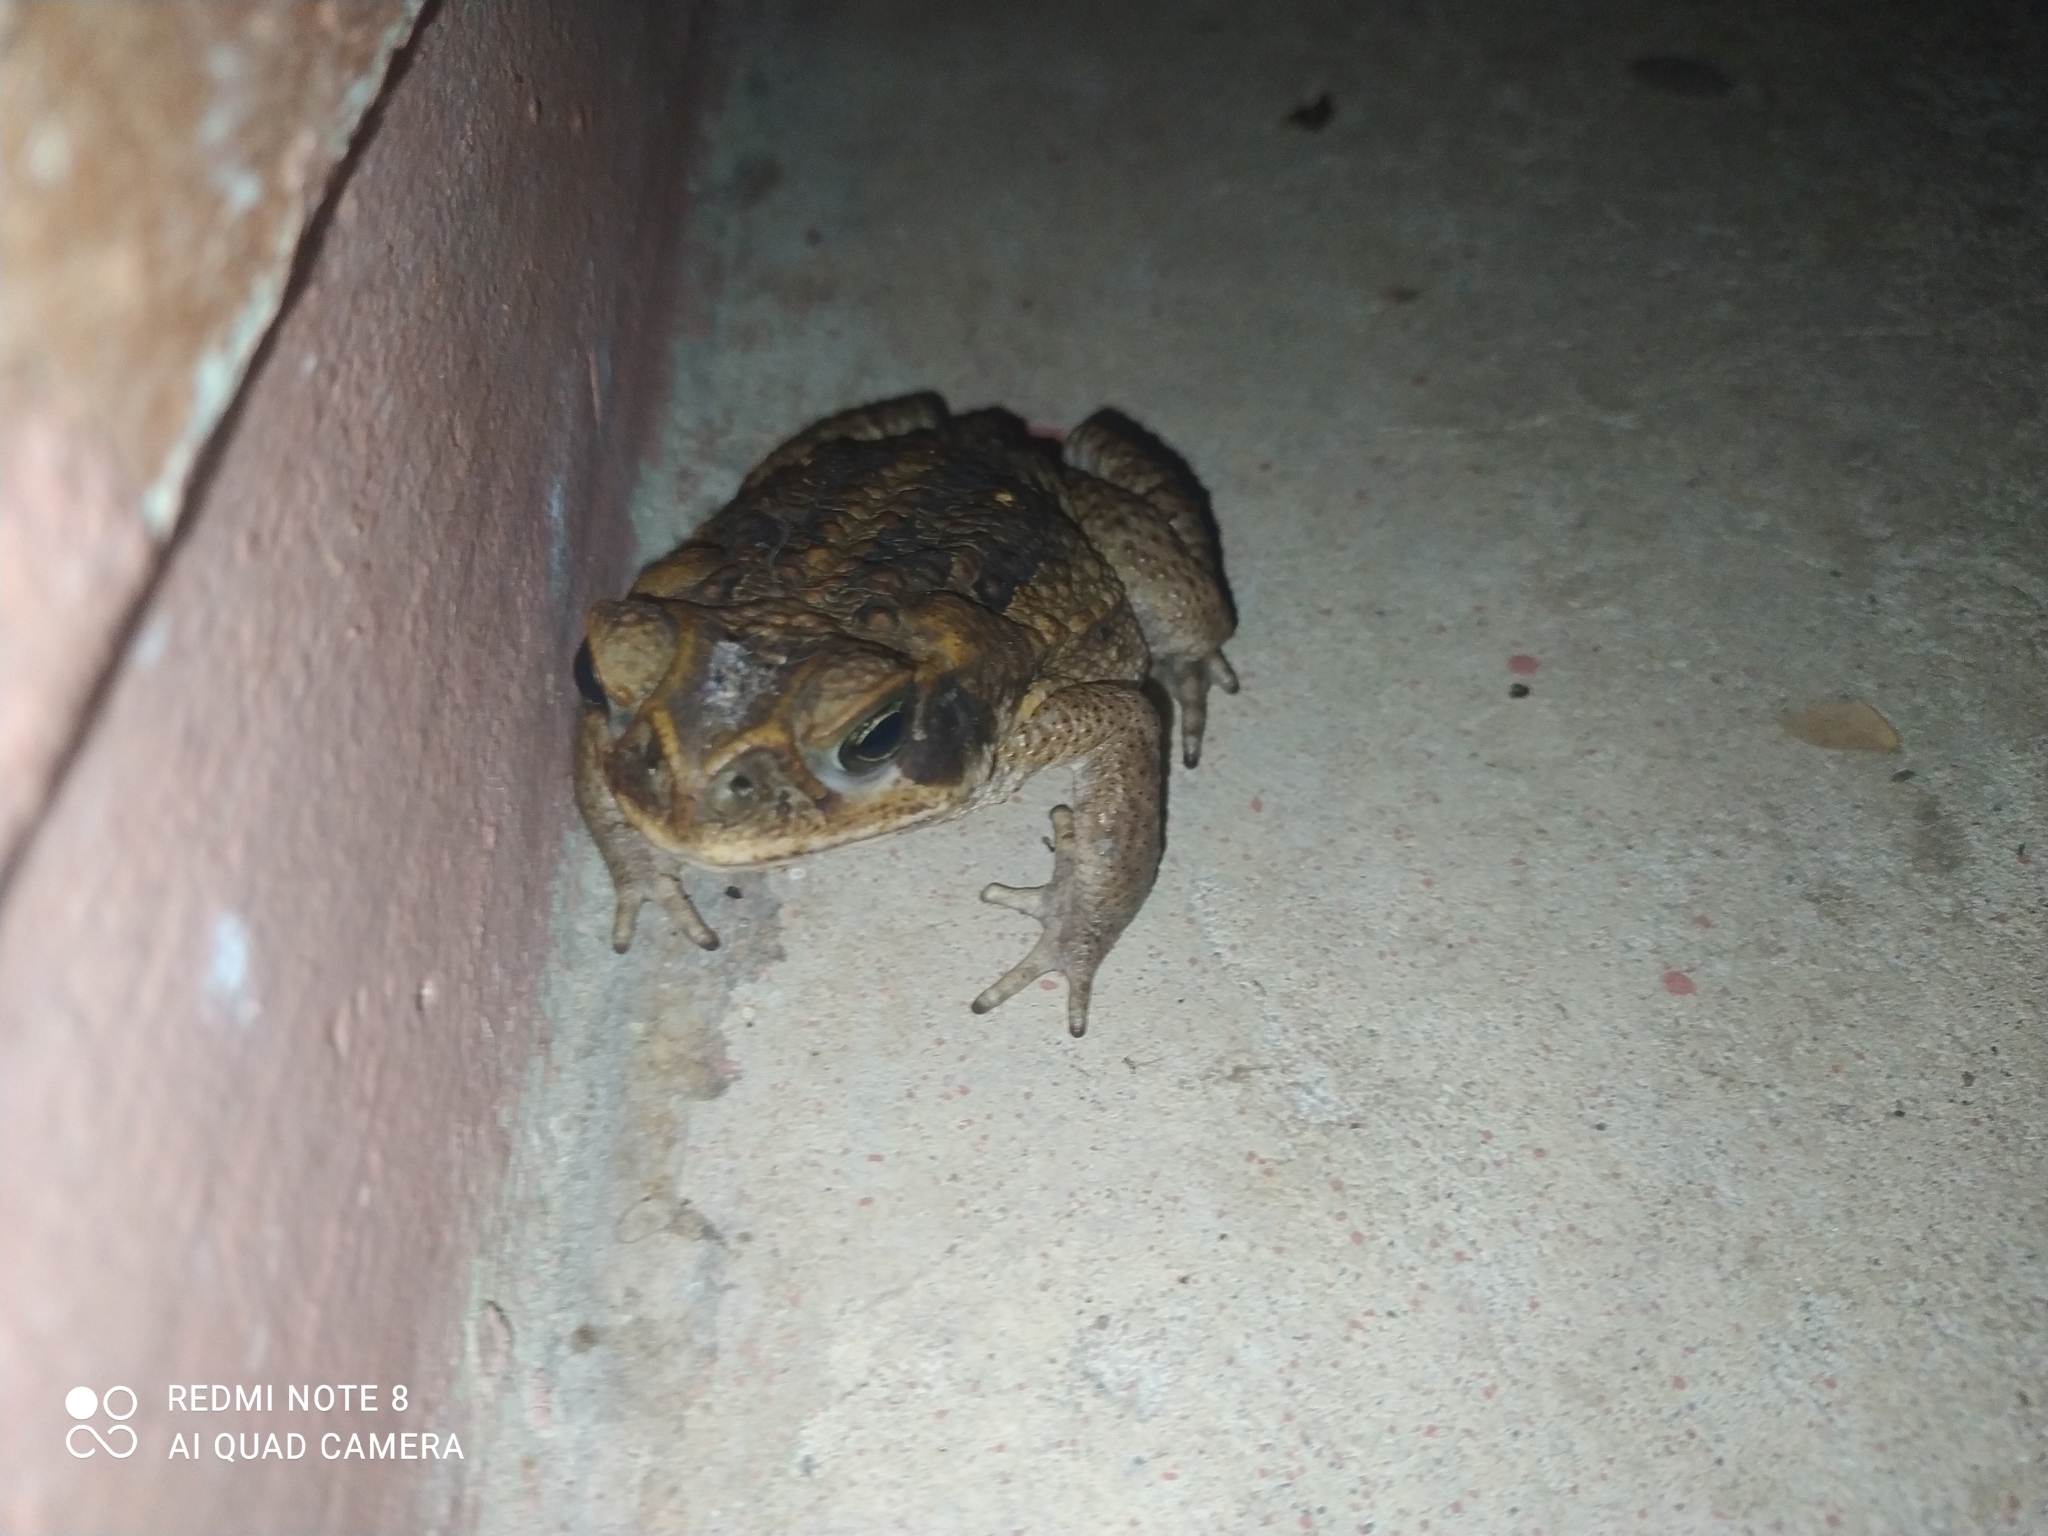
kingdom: Animalia
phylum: Chordata
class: Amphibia
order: Anura
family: Bufonidae
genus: Rhinella
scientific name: Rhinella marina
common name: Cane toad
